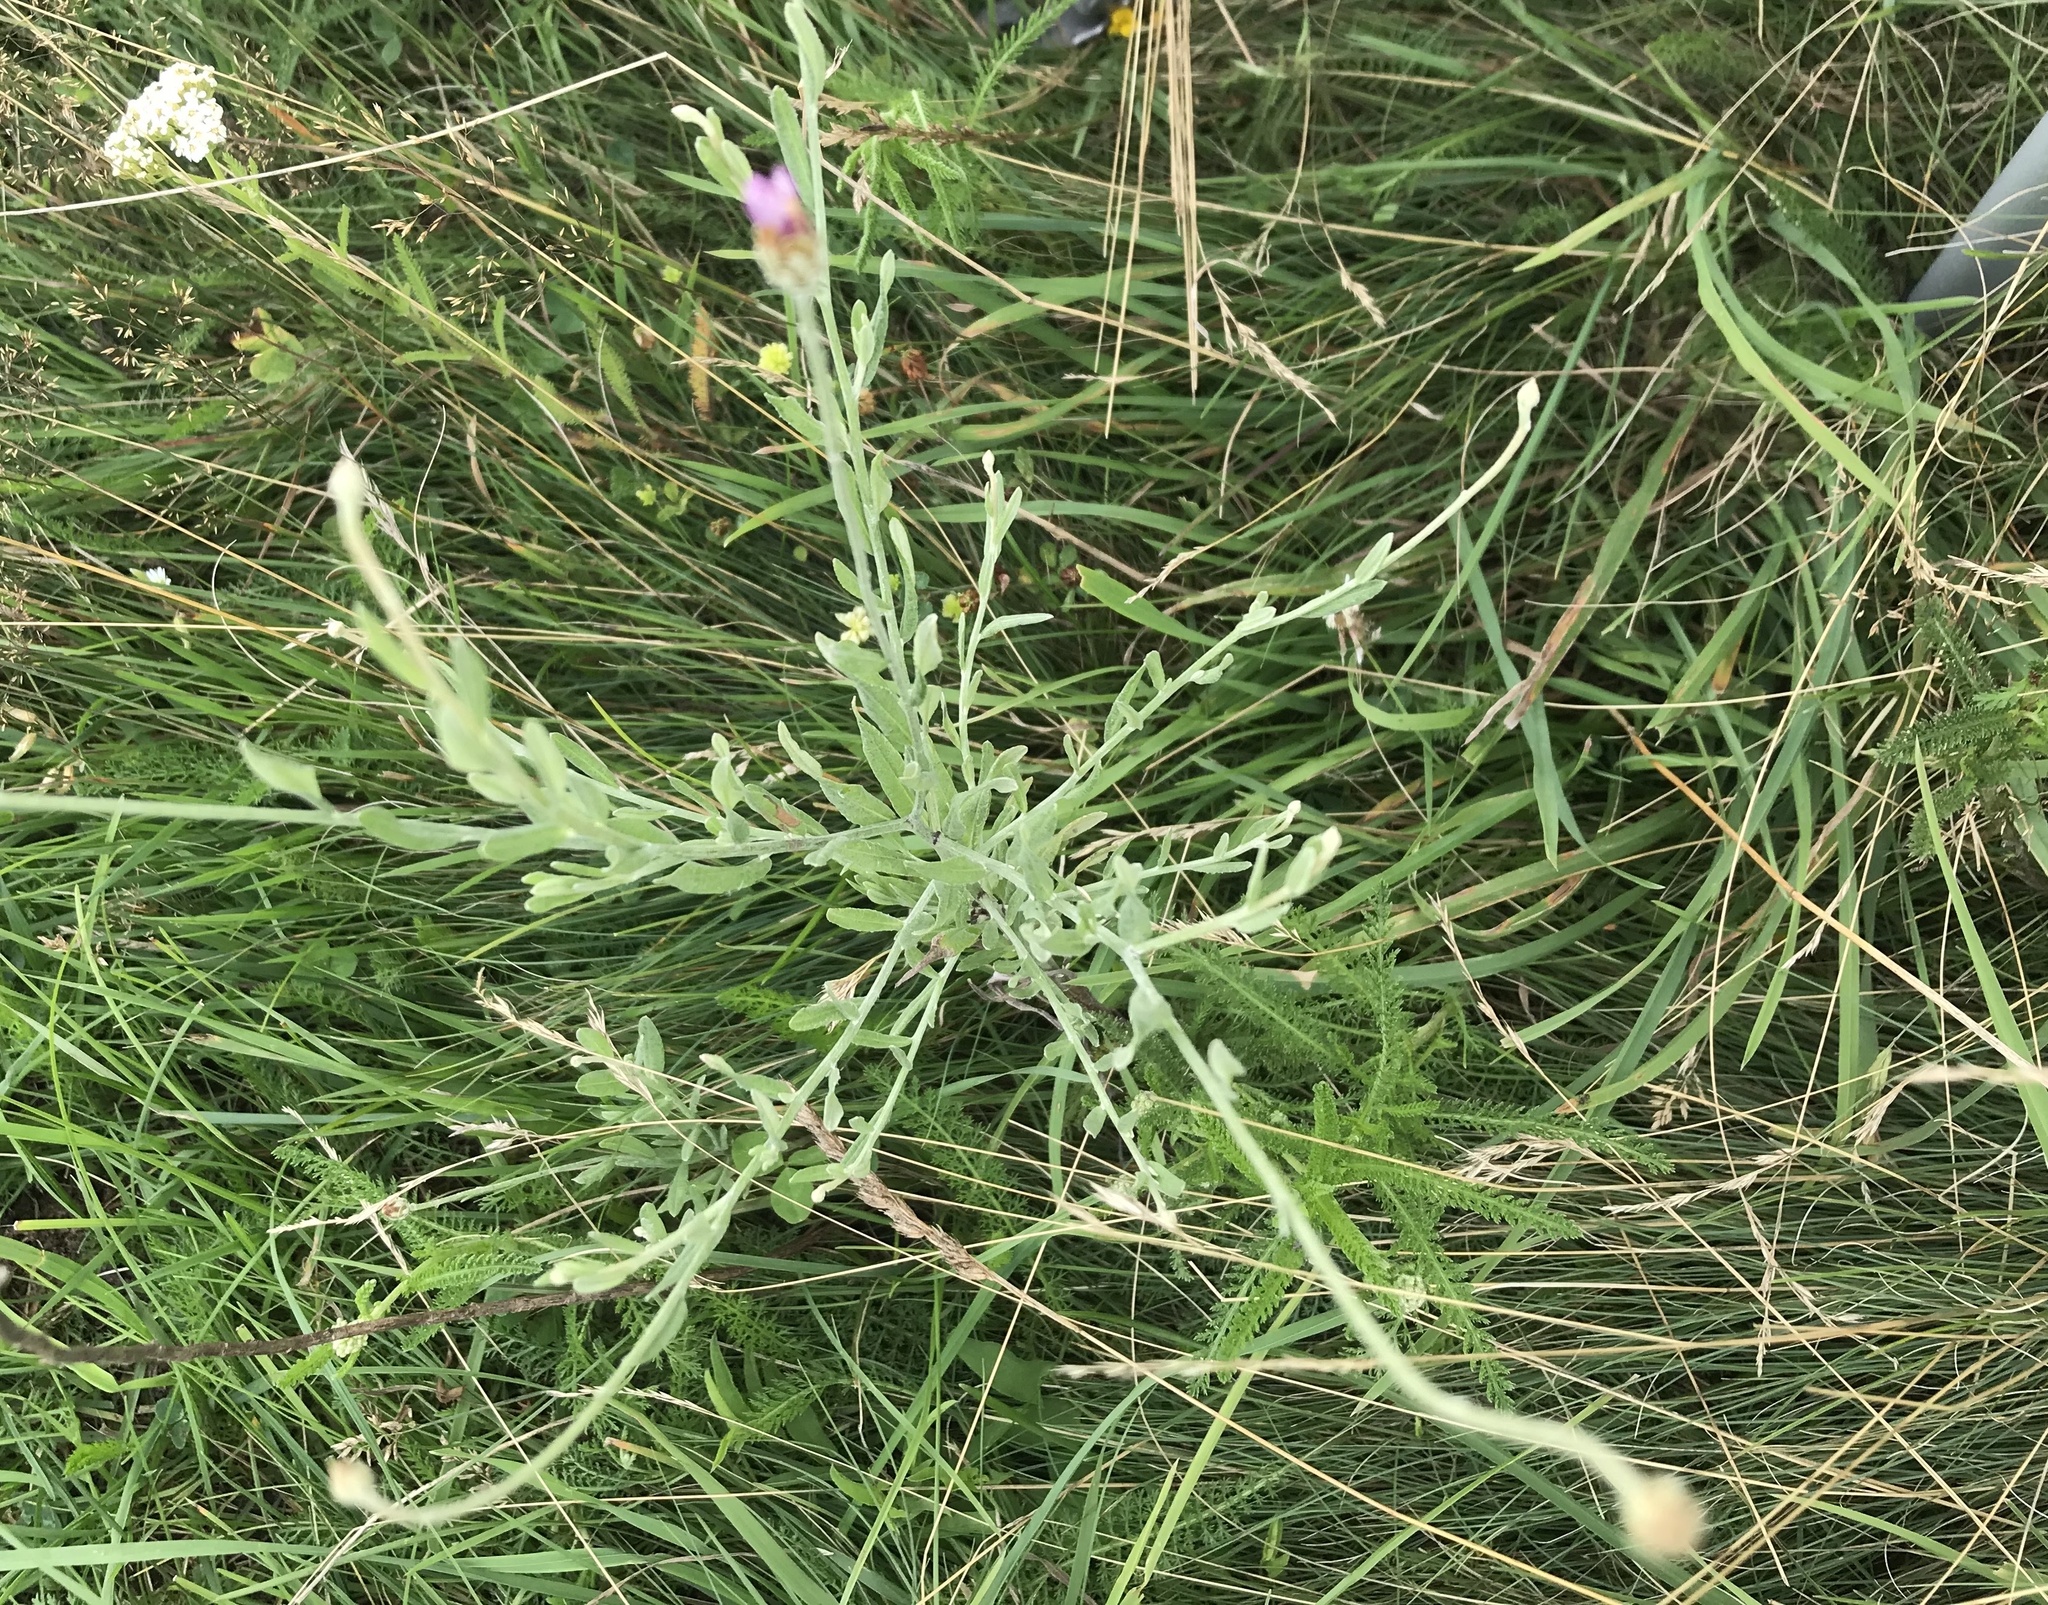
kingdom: Plantae
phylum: Tracheophyta
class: Magnoliopsida
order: Asterales
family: Asteraceae
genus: Xeranthemum
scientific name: Xeranthemum cylindraceum
